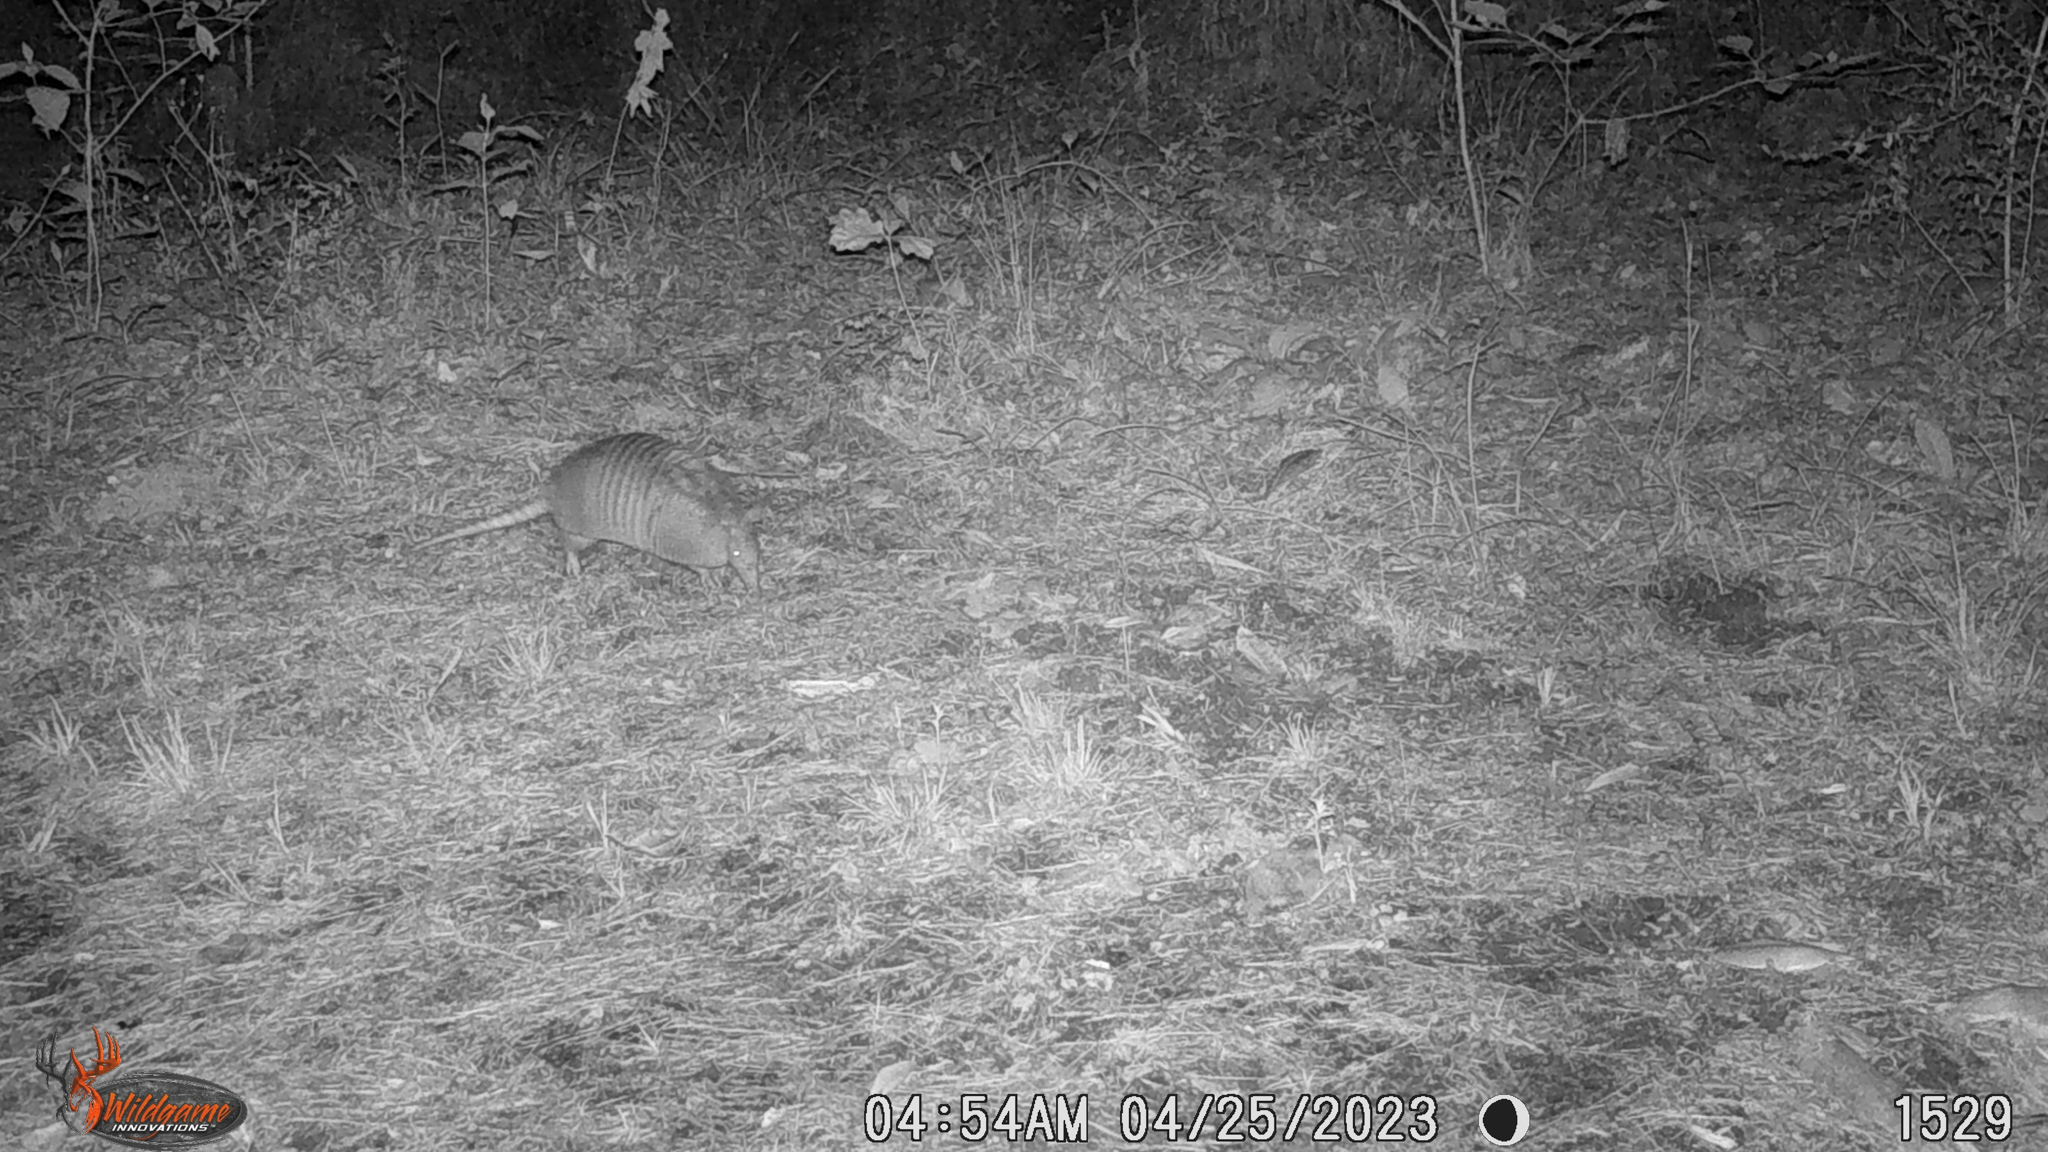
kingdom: Animalia
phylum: Chordata
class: Mammalia
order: Cingulata
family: Dasypodidae
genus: Dasypus
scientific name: Dasypus novemcinctus
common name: Nine-banded armadillo
